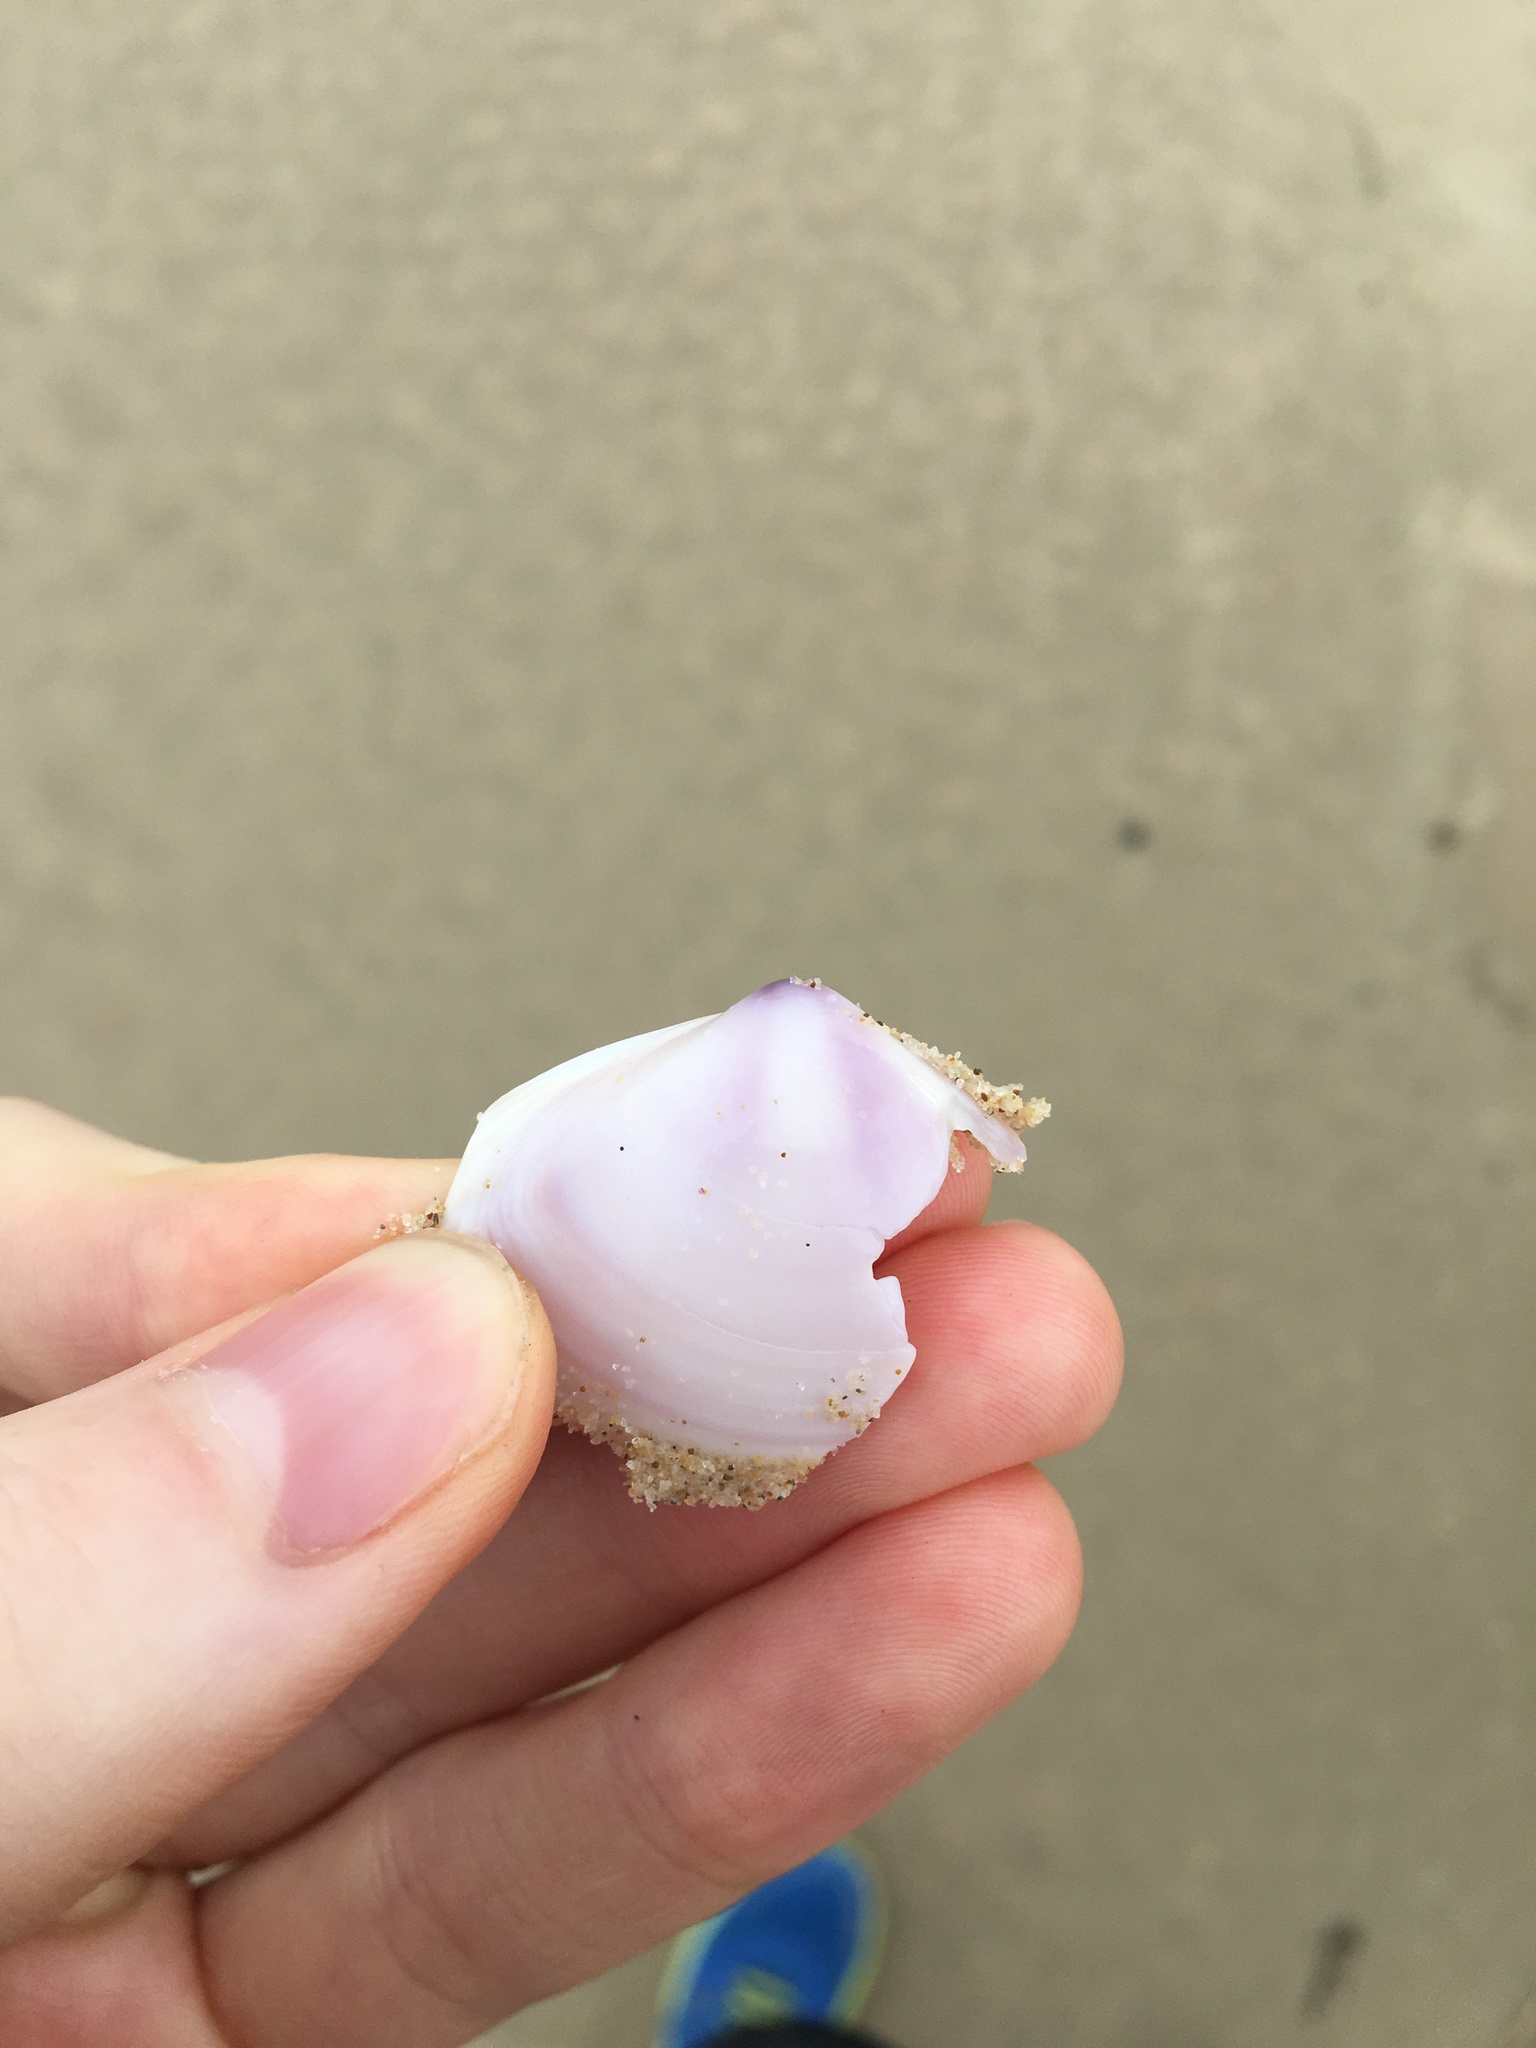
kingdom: Animalia
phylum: Mollusca
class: Bivalvia
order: Venerida
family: Mactridae
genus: Austromactra
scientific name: Austromactra contraria
